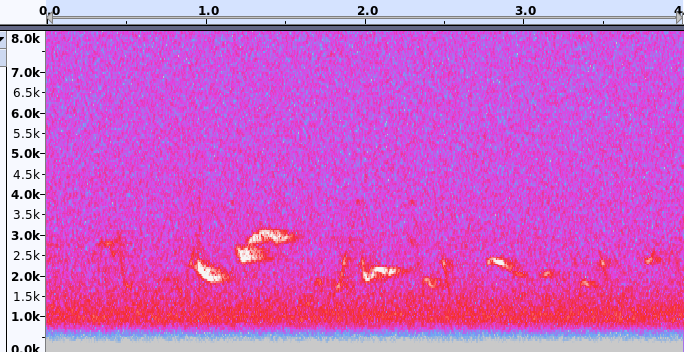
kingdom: Animalia
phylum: Chordata
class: Aves
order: Passeriformes
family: Cardinalidae
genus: Pheucticus
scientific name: Pheucticus ludovicianus
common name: Rose-breasted grosbeak
